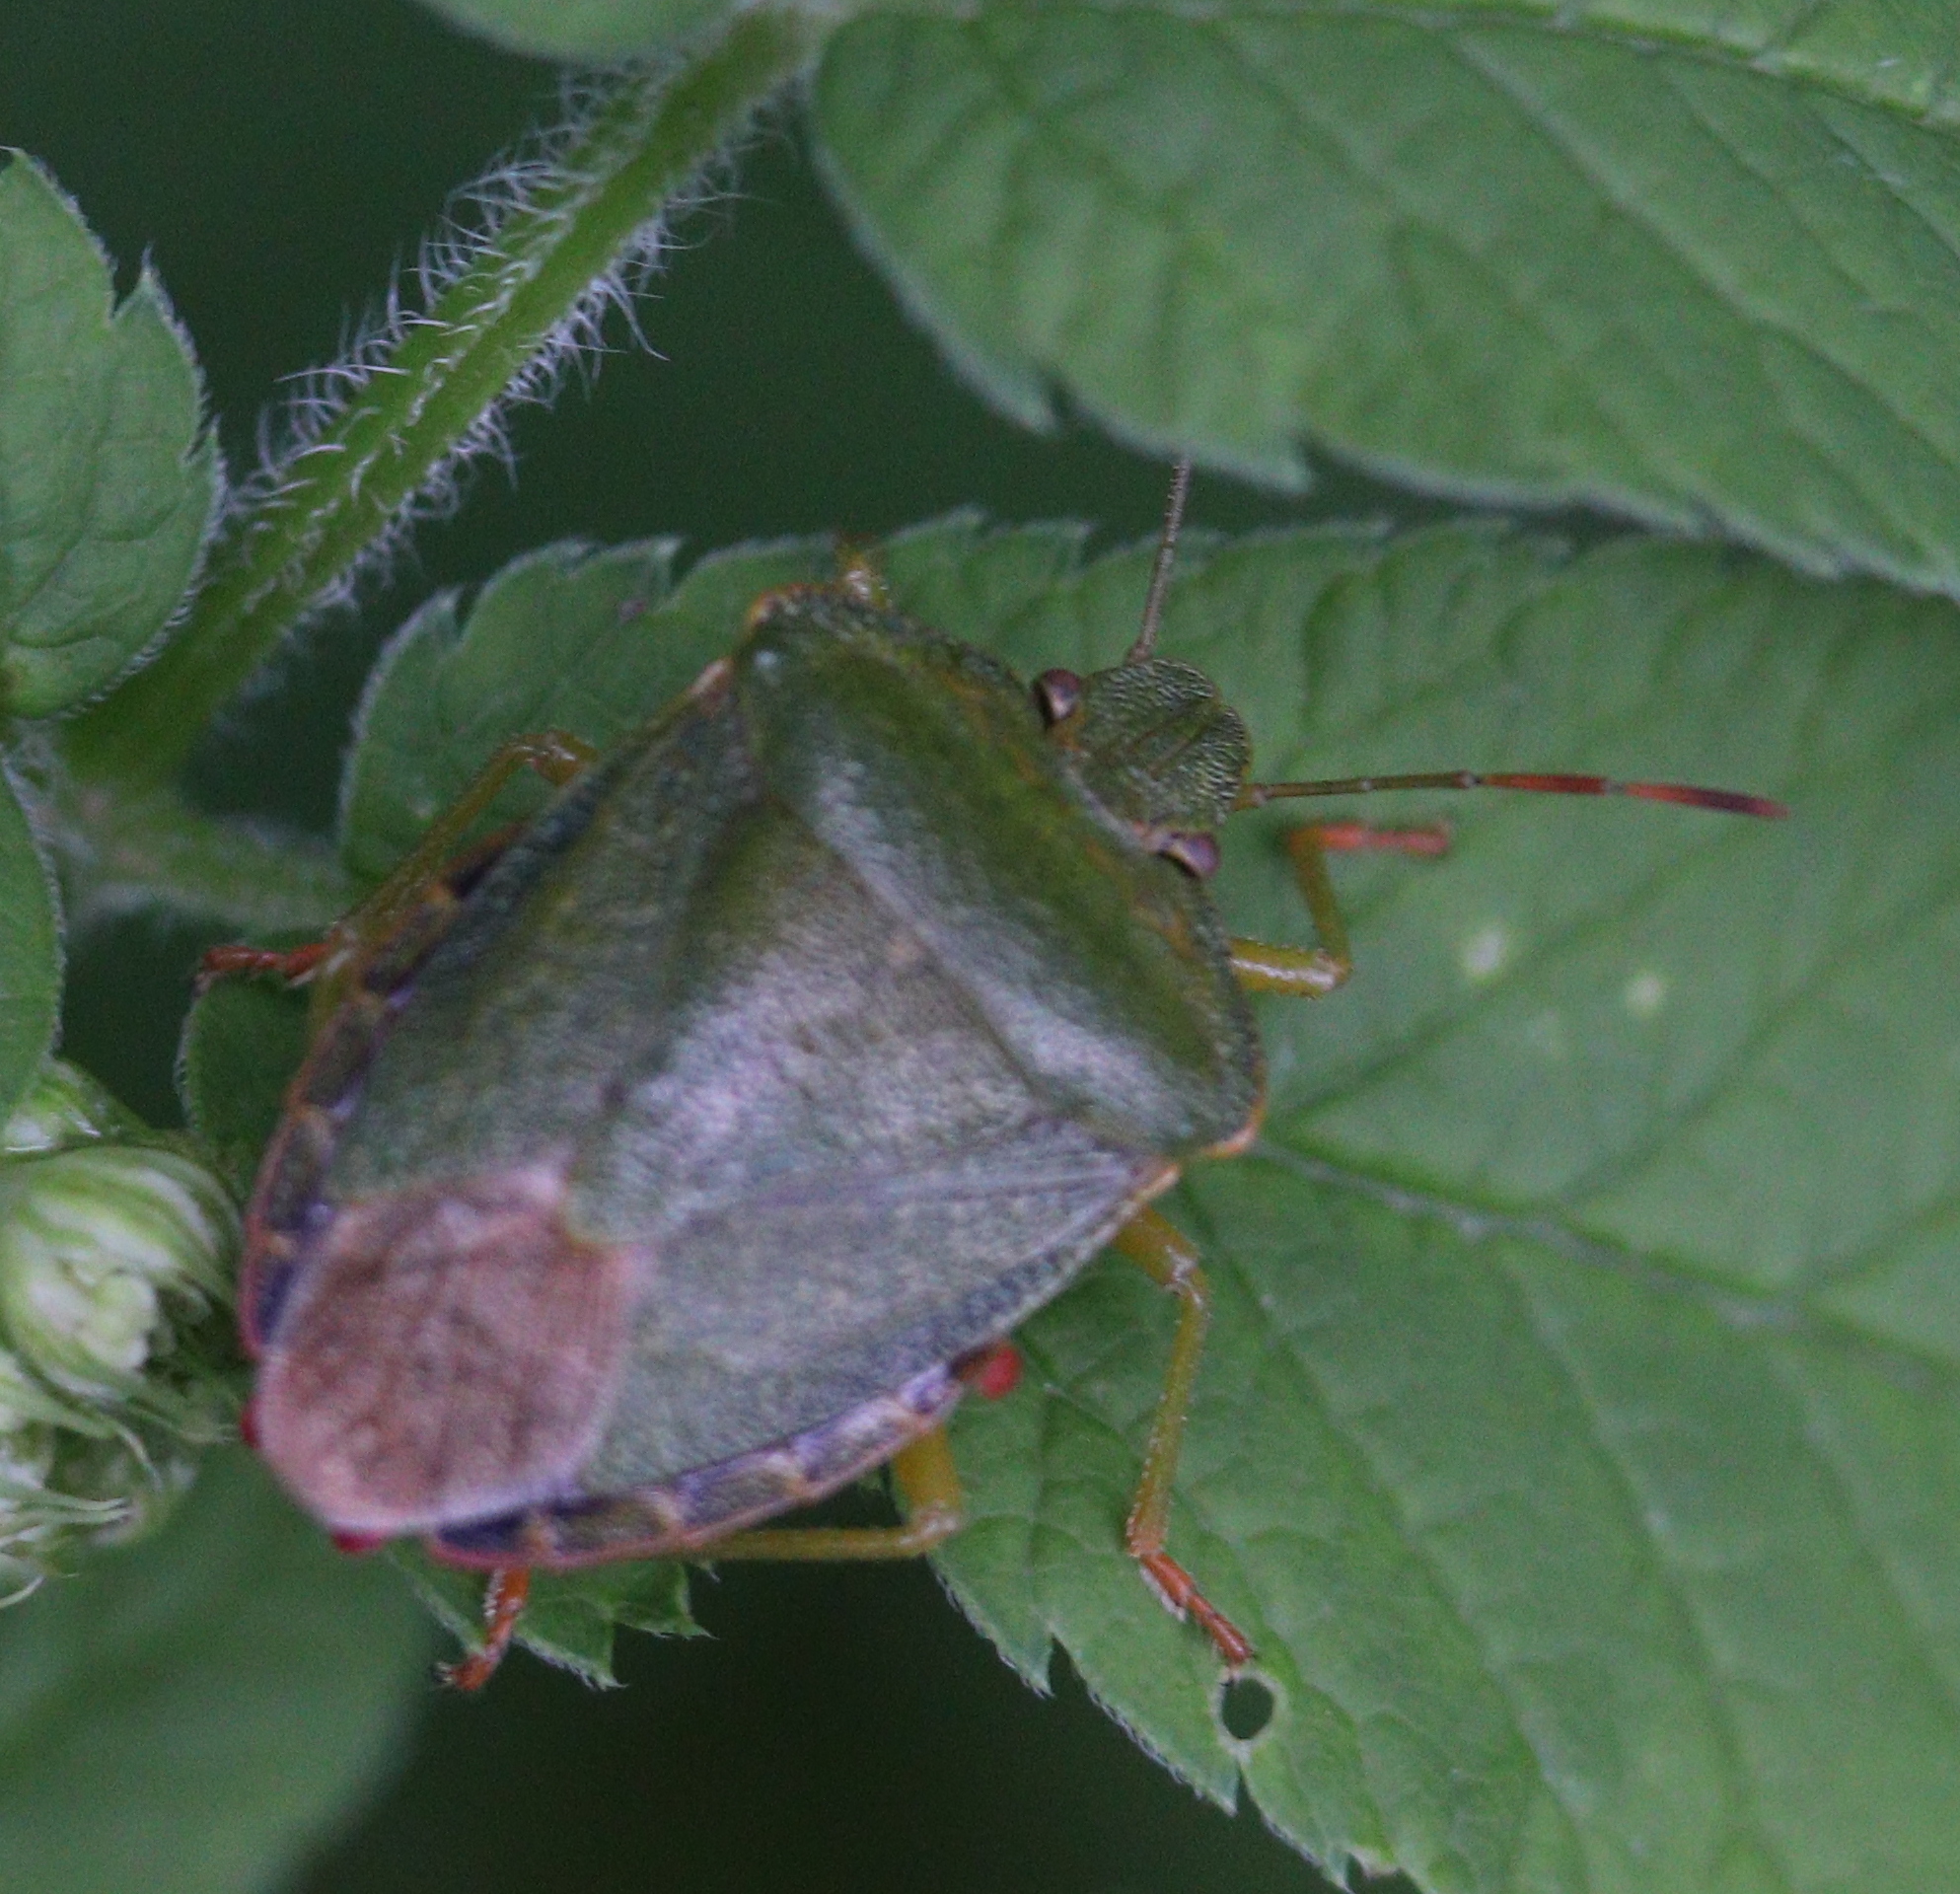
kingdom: Animalia
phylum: Arthropoda
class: Insecta
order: Hemiptera
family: Pentatomidae
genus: Palomena
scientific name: Palomena prasina
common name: Green shieldbug
